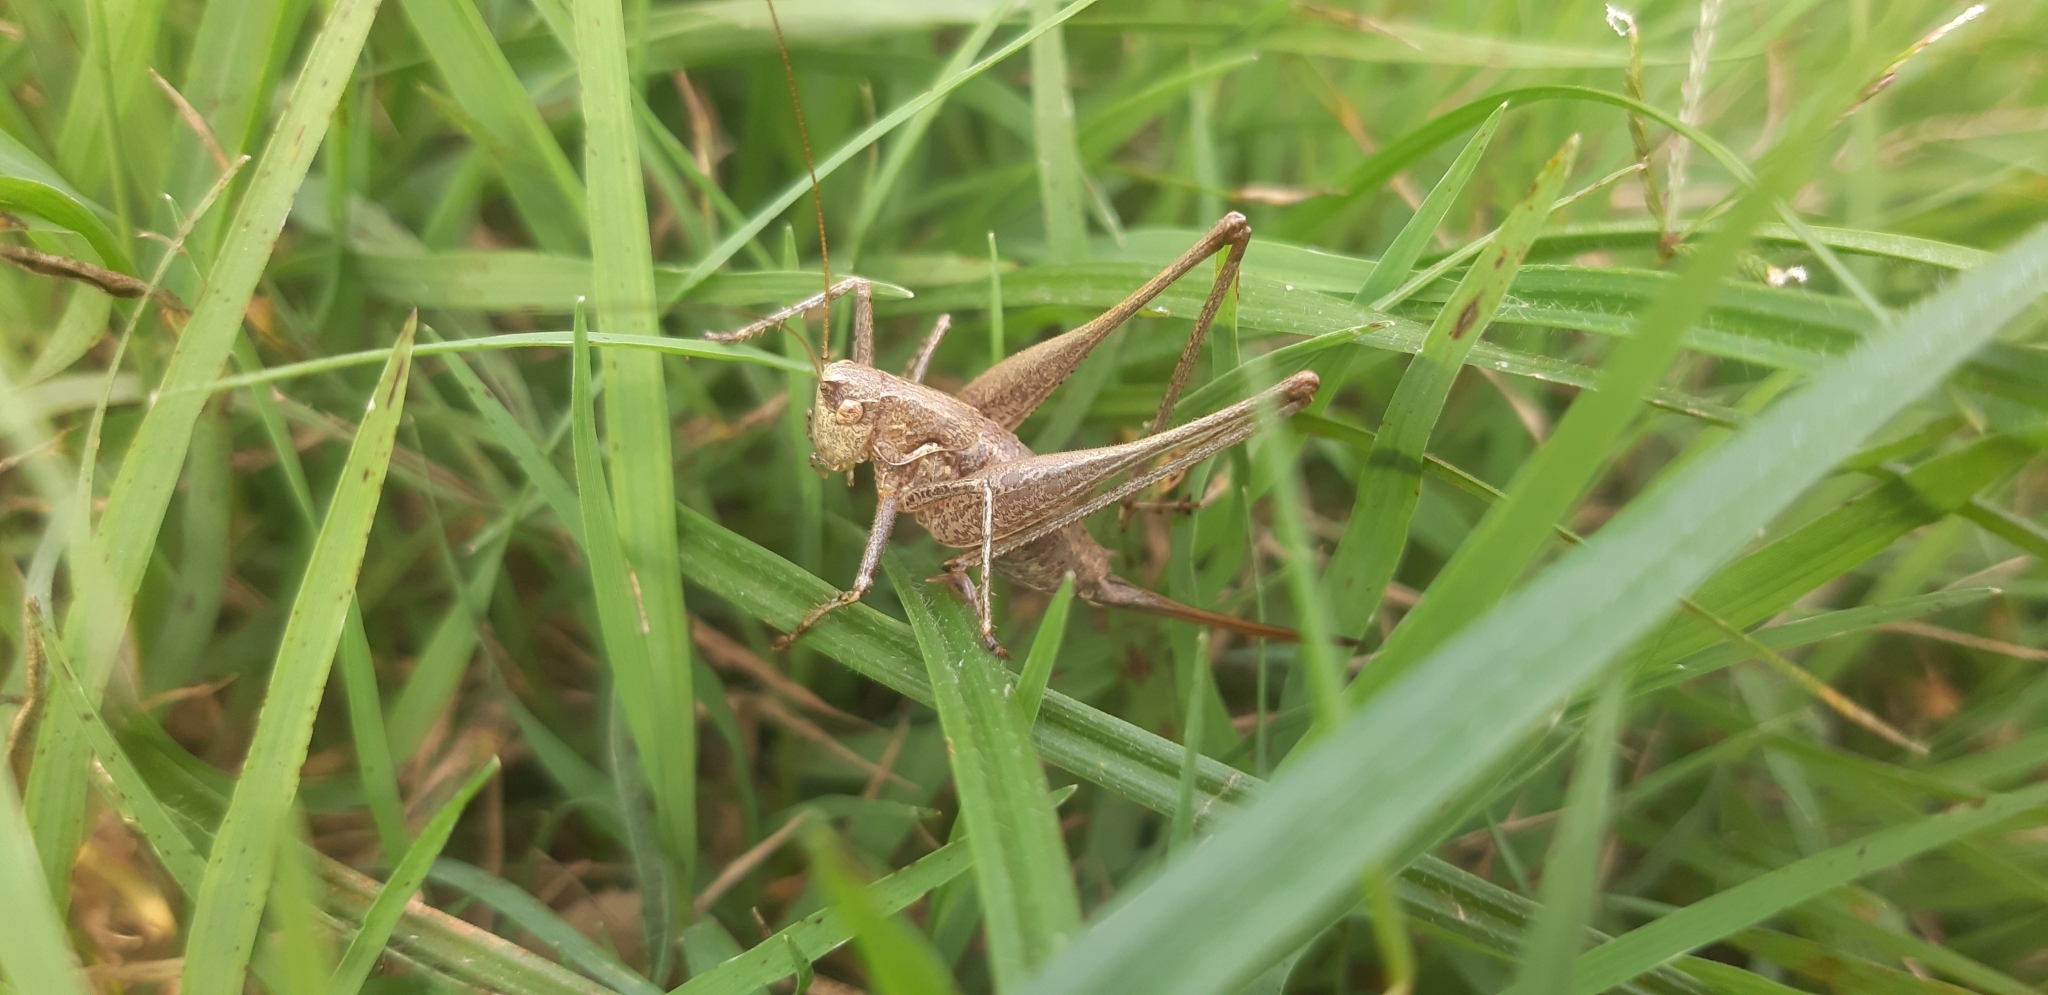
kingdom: Animalia
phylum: Arthropoda
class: Insecta
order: Orthoptera
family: Tettigoniidae
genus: Rhacocleis
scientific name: Rhacocleis germanica
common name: Mediterranean bush-cricket
